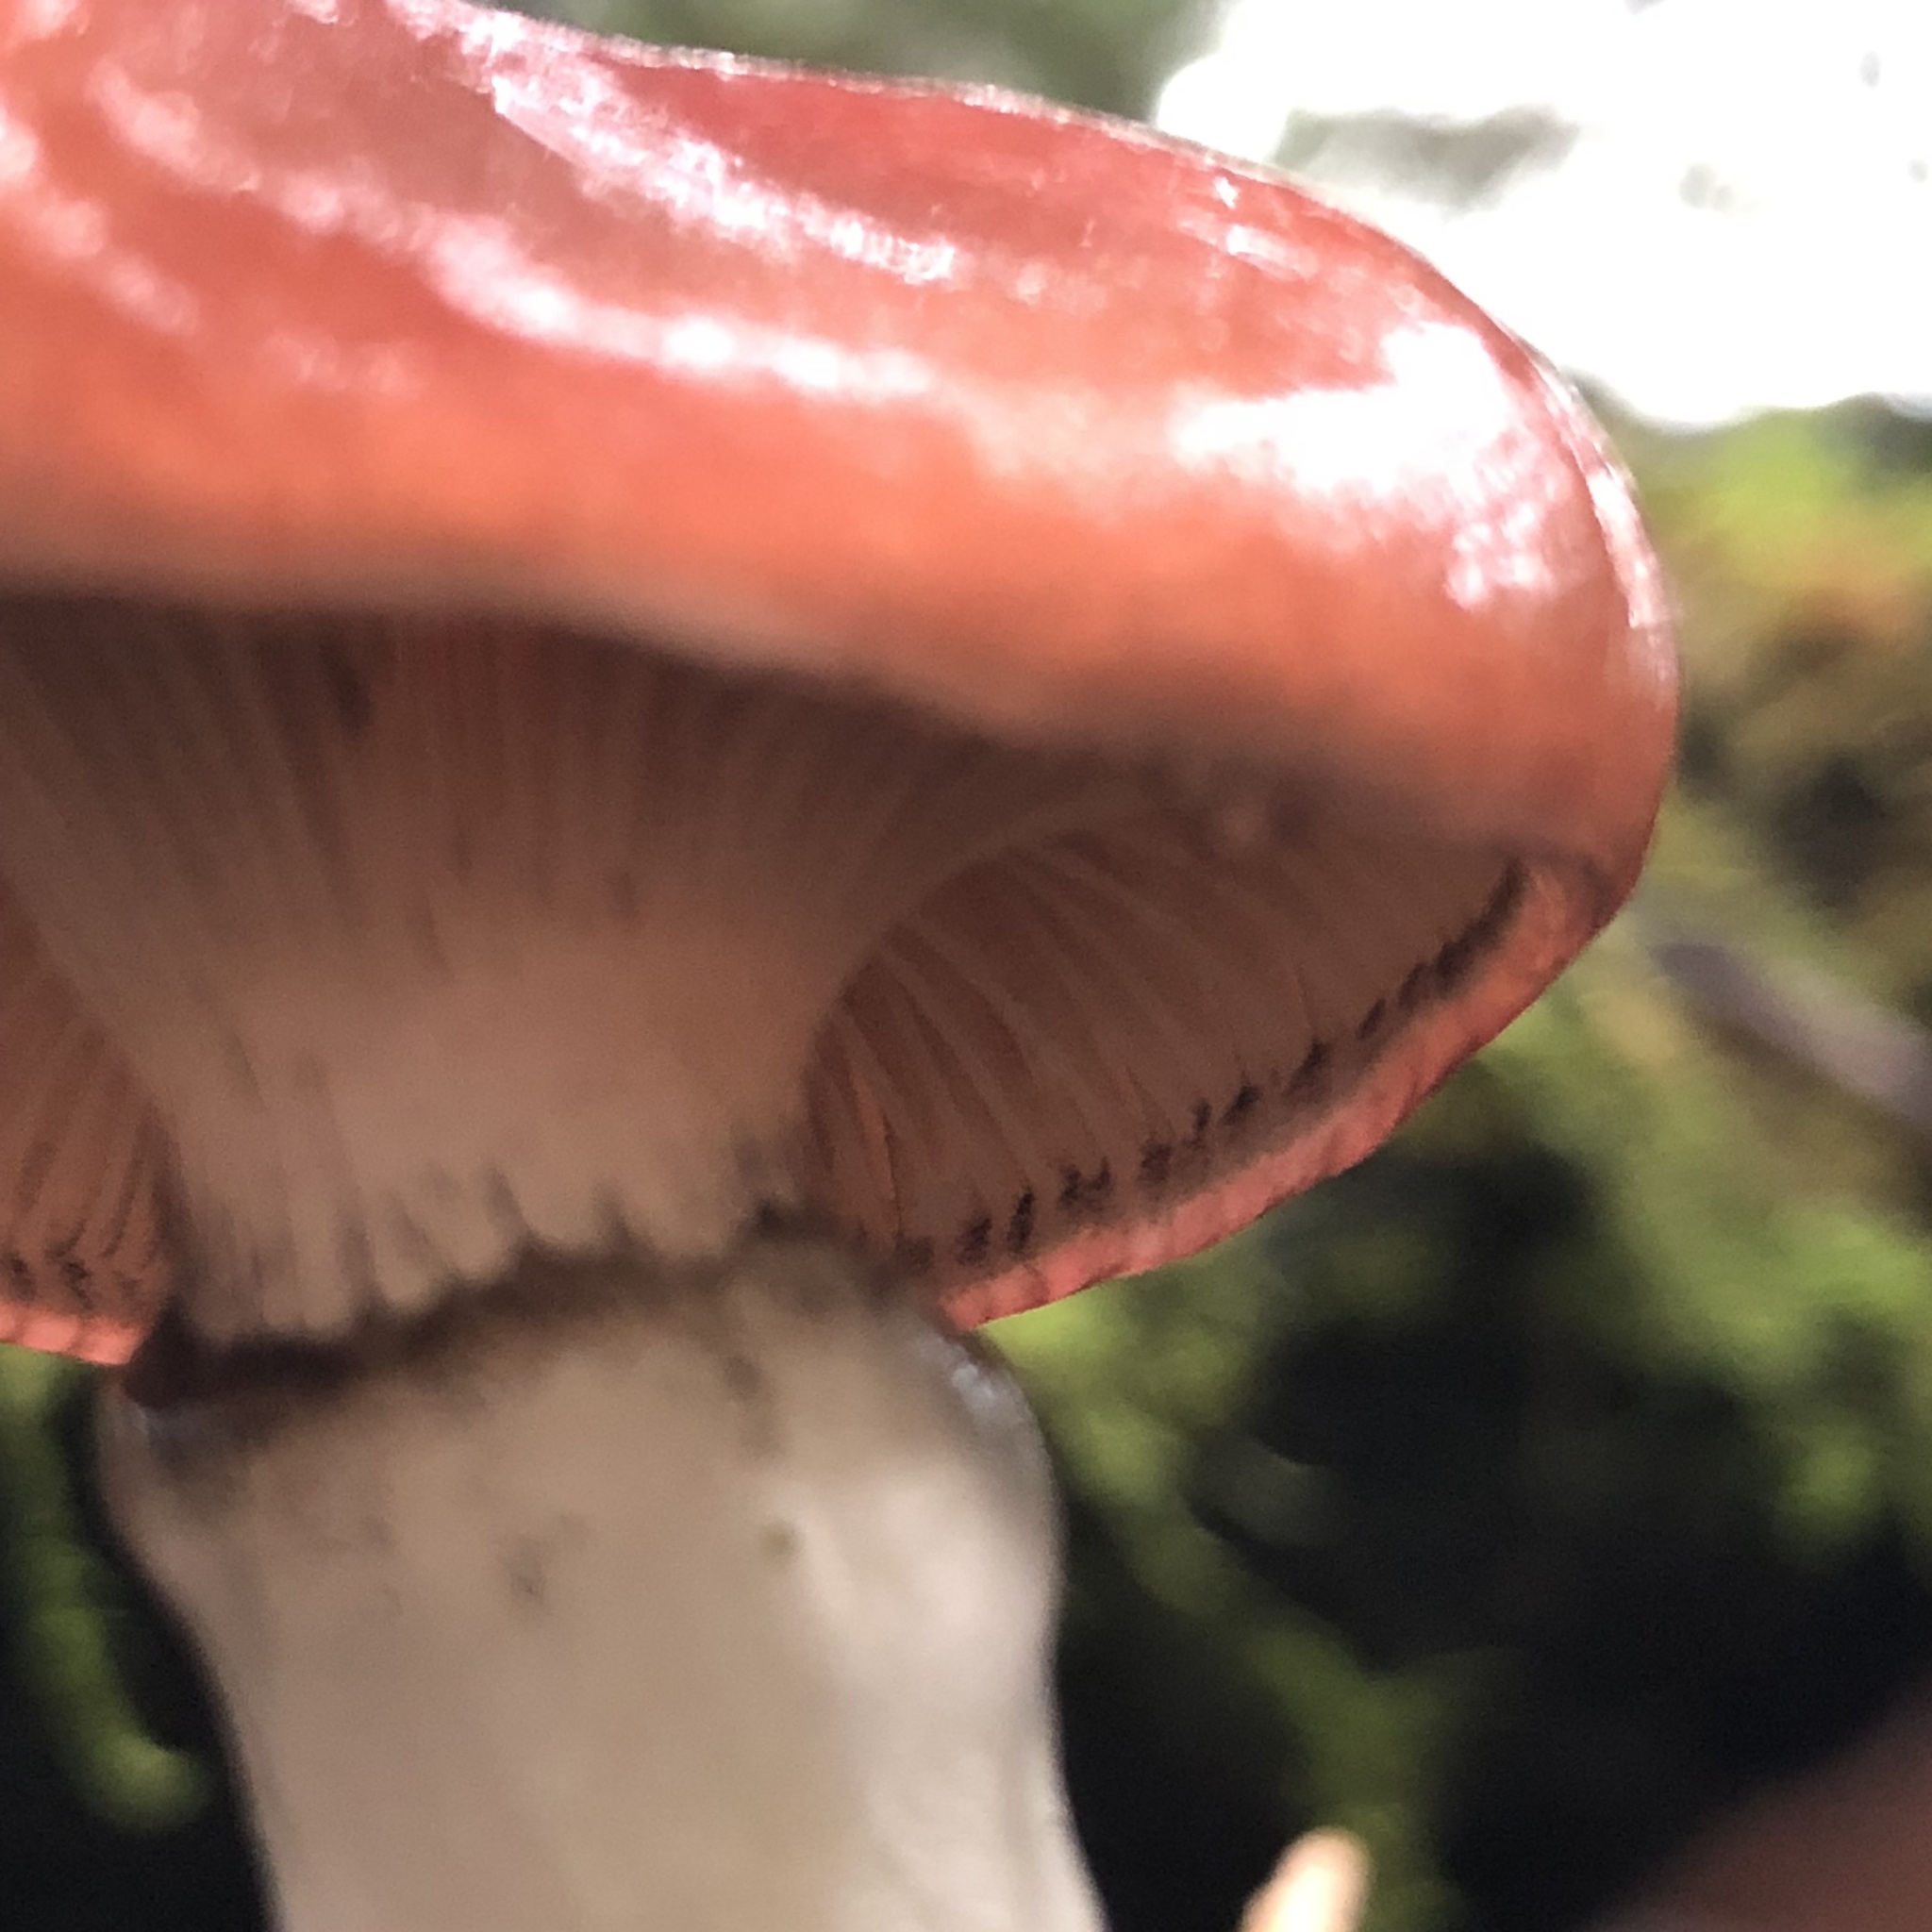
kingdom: Fungi
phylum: Basidiomycota
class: Agaricomycetes
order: Boletales
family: Gomphidiaceae
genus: Gomphidius
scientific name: Gomphidius subroseus
